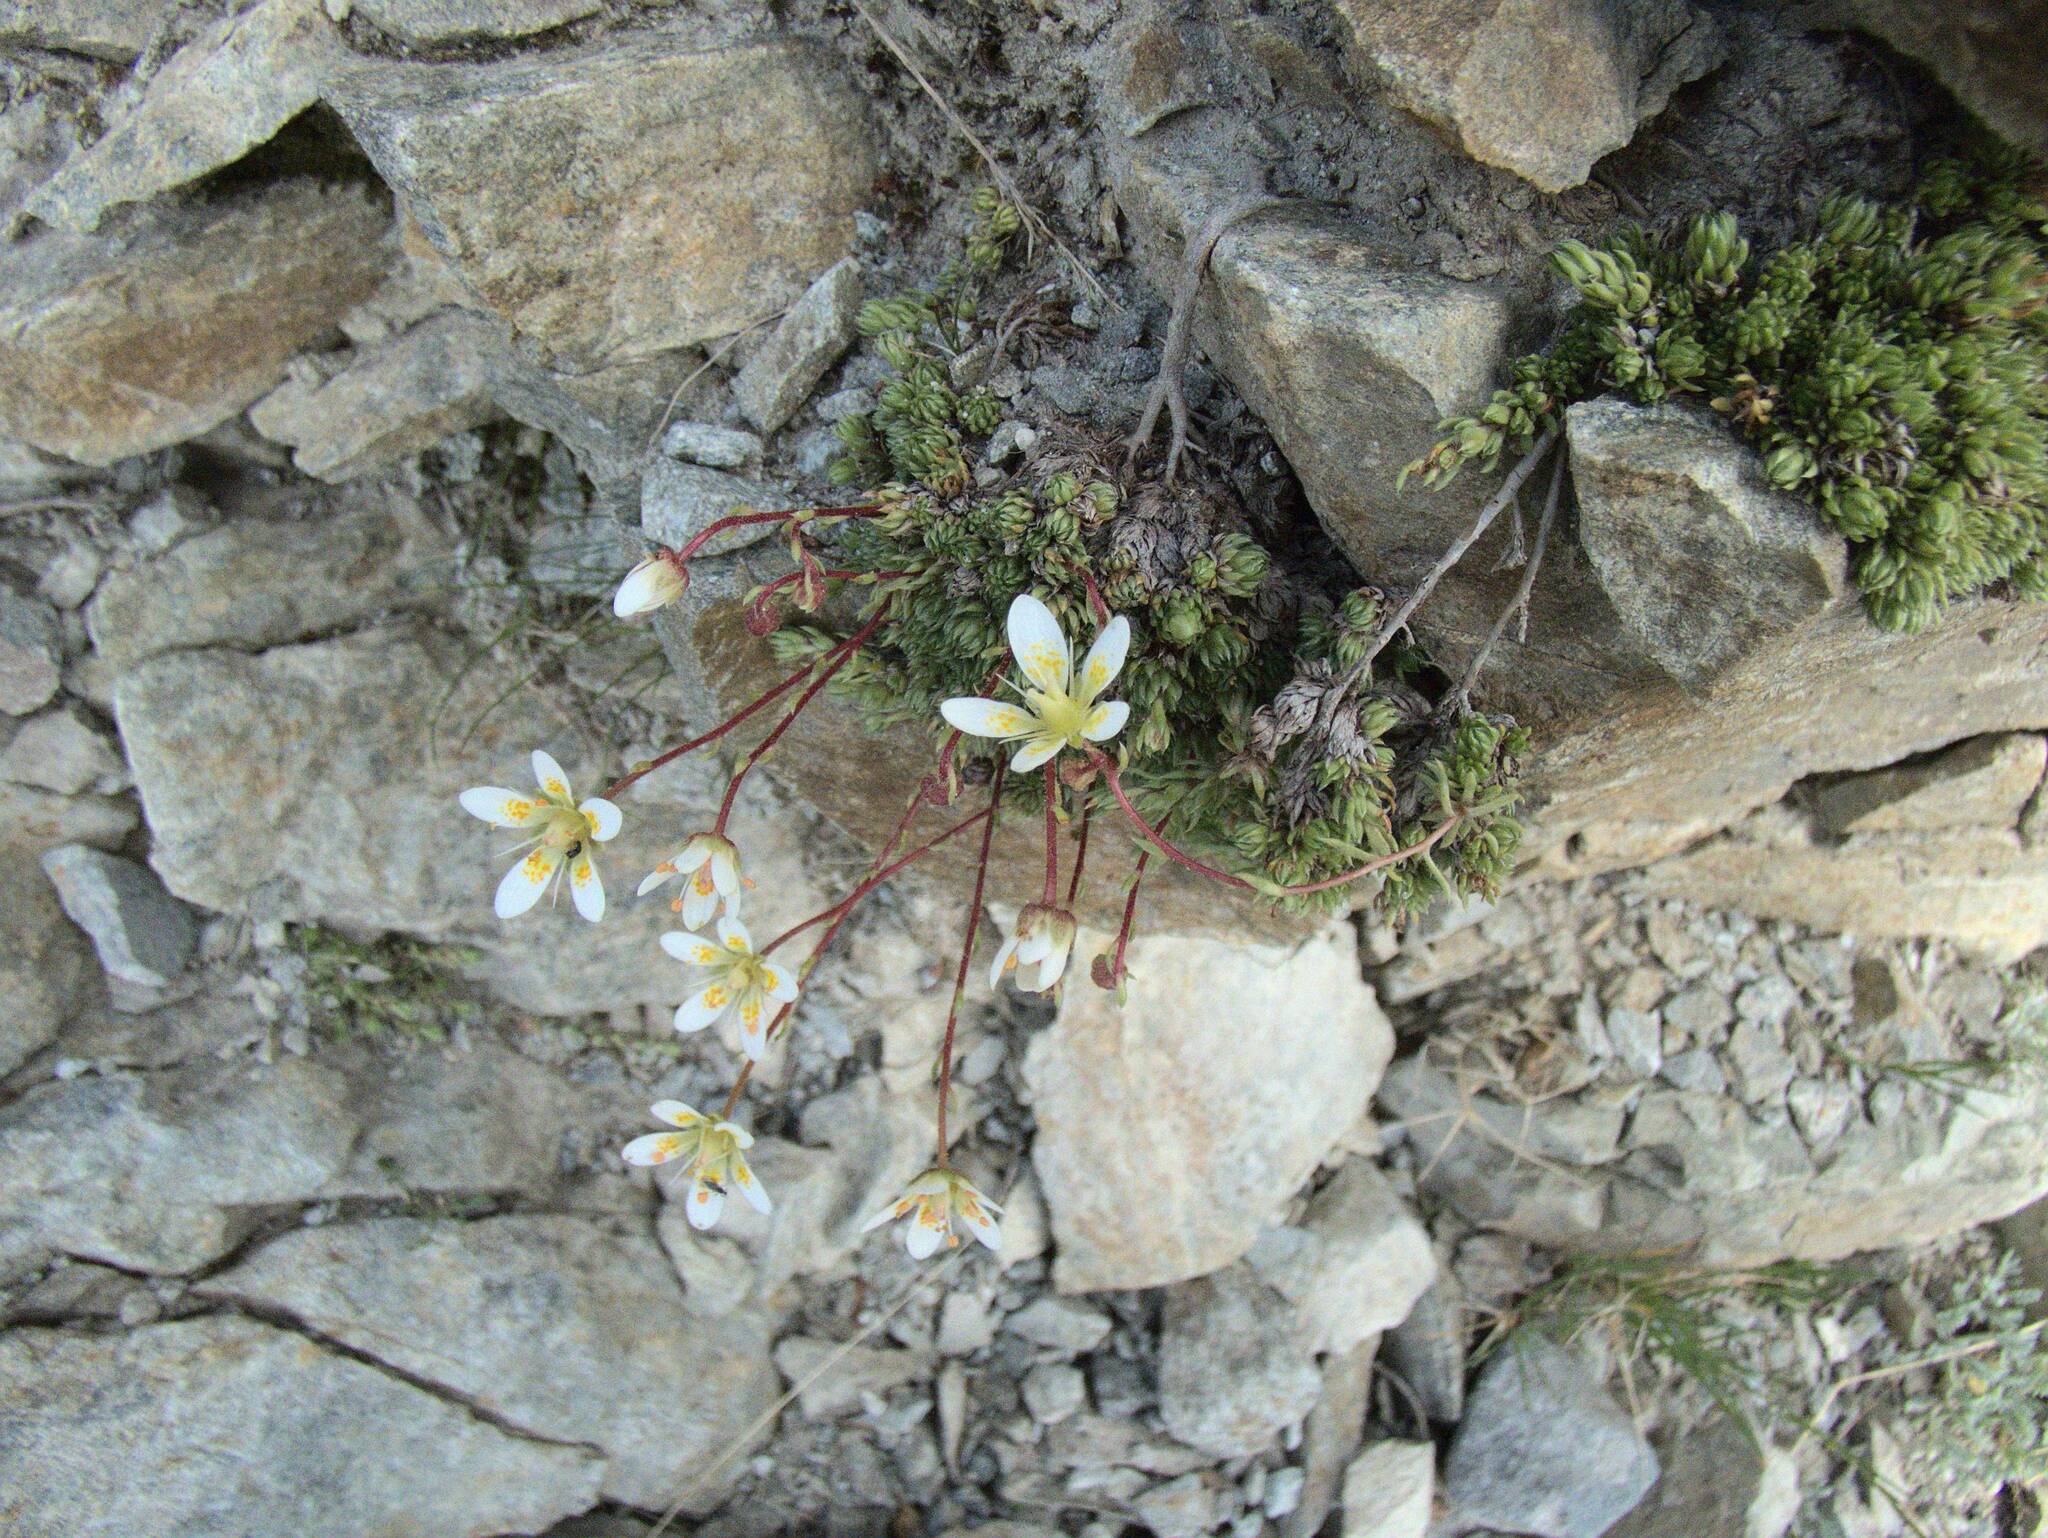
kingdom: Plantae
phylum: Tracheophyta
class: Magnoliopsida
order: Saxifragales
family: Saxifragaceae
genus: Saxifraga
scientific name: Saxifraga bryoides
